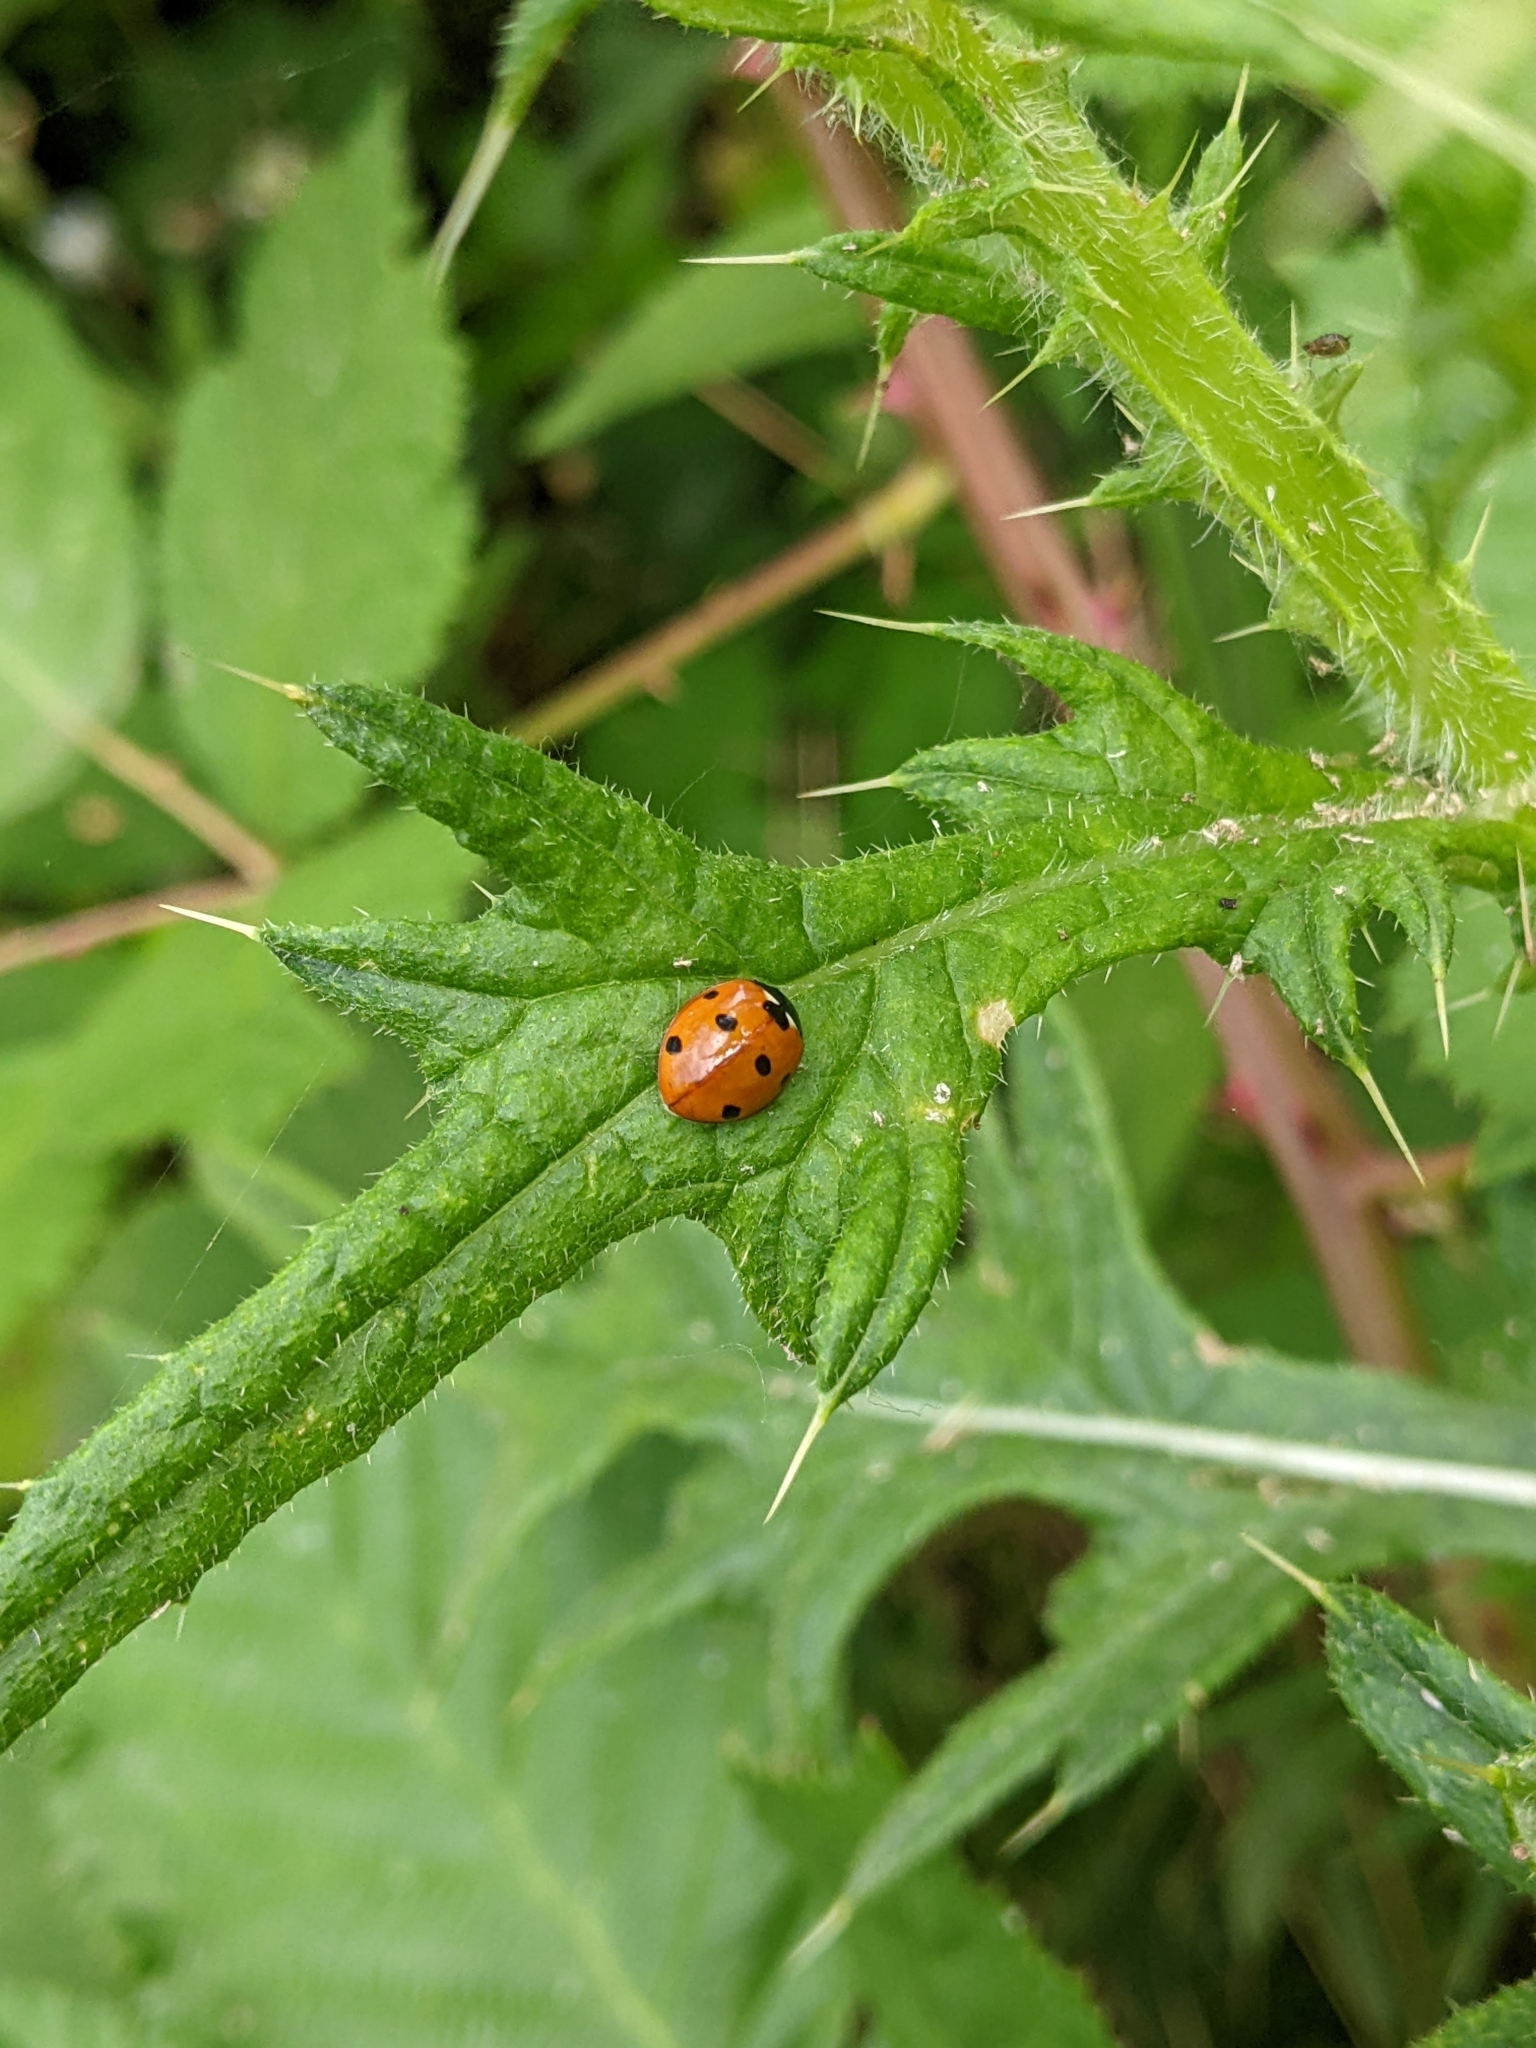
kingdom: Animalia
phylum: Arthropoda
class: Insecta
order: Coleoptera
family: Coccinellidae
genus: Coccinella
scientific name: Coccinella septempunctata
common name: Sevenspotted lady beetle
